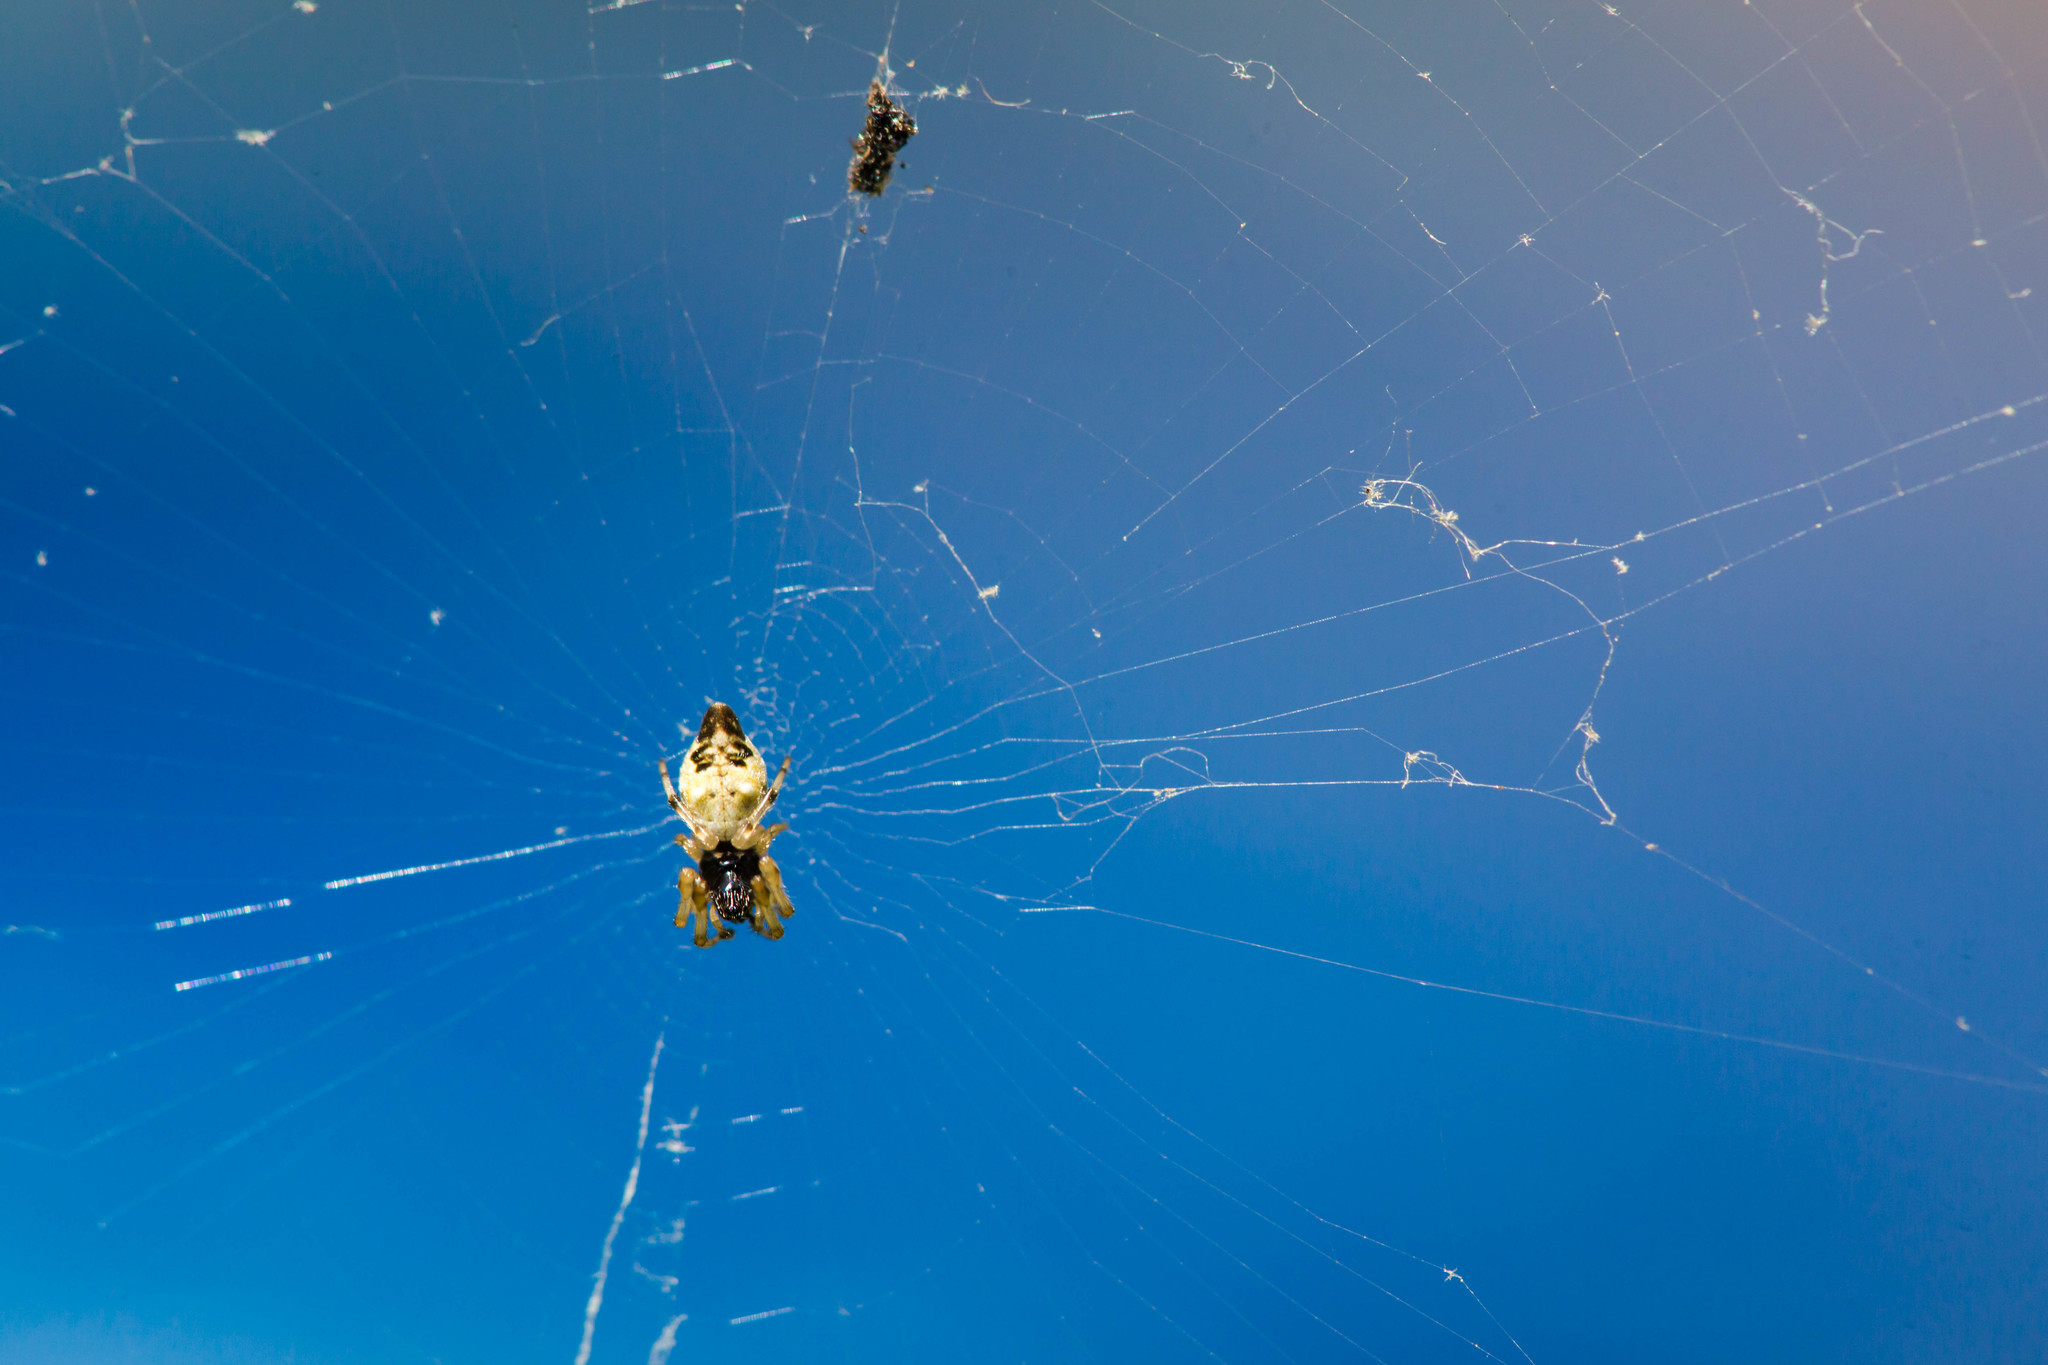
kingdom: Animalia
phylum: Arthropoda
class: Arachnida
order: Araneae
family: Araneidae
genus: Cyclosa
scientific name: Cyclosa turbinata
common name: Orb weavers
